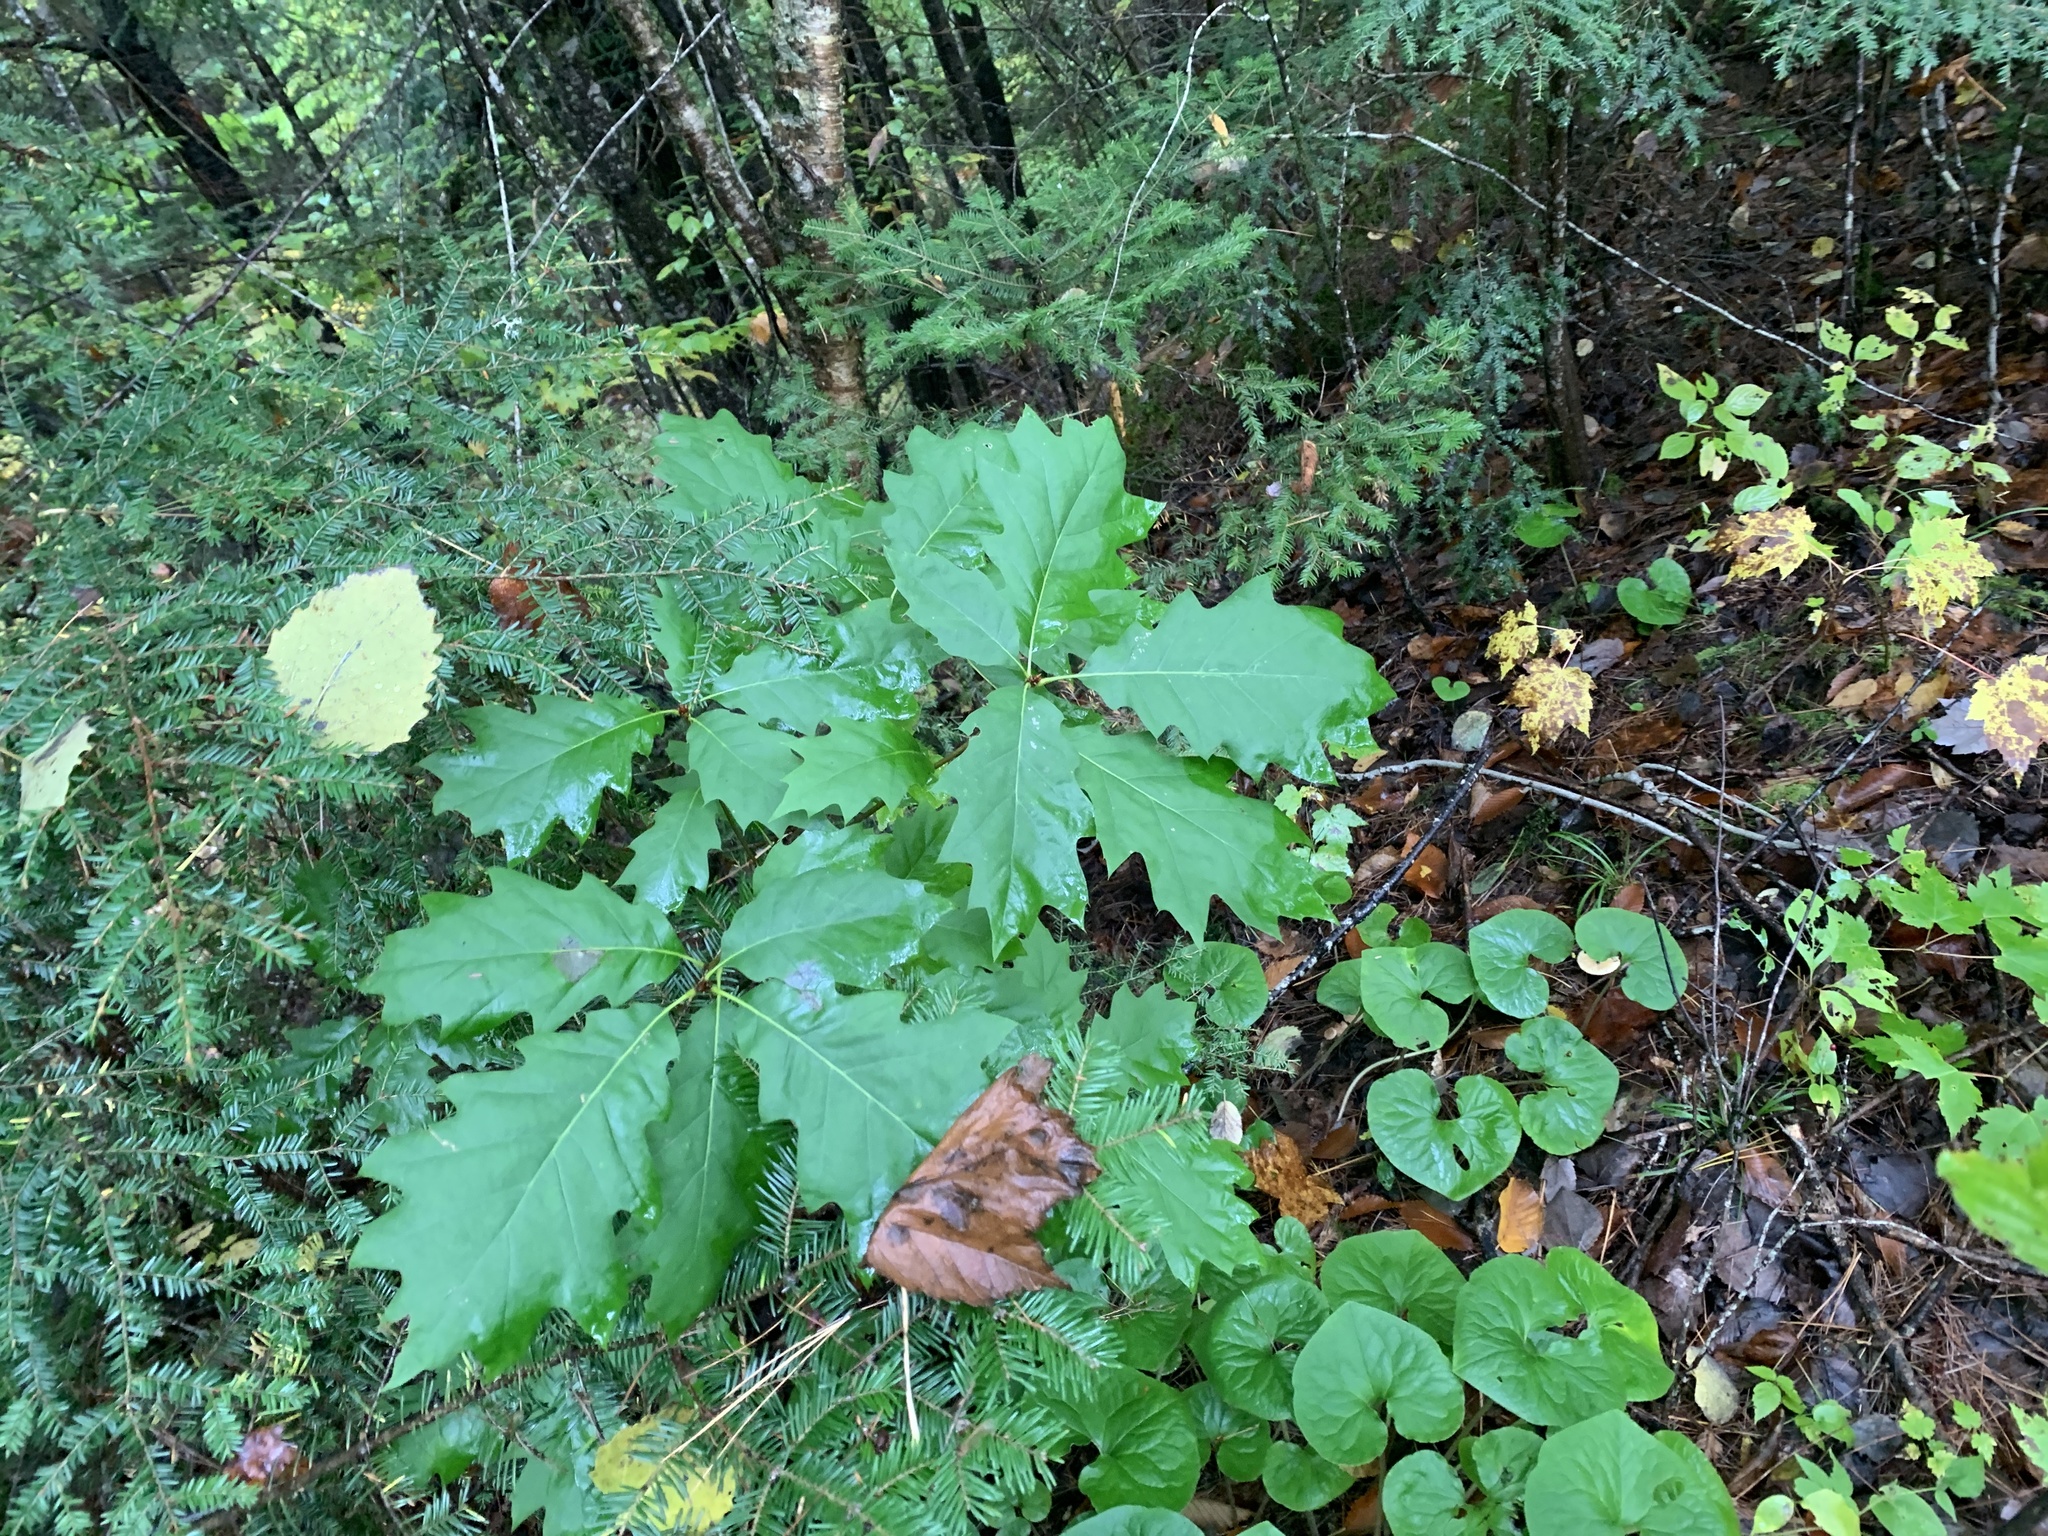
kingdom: Plantae
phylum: Tracheophyta
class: Magnoliopsida
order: Fagales
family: Fagaceae
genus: Quercus
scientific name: Quercus rubra
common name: Red oak
